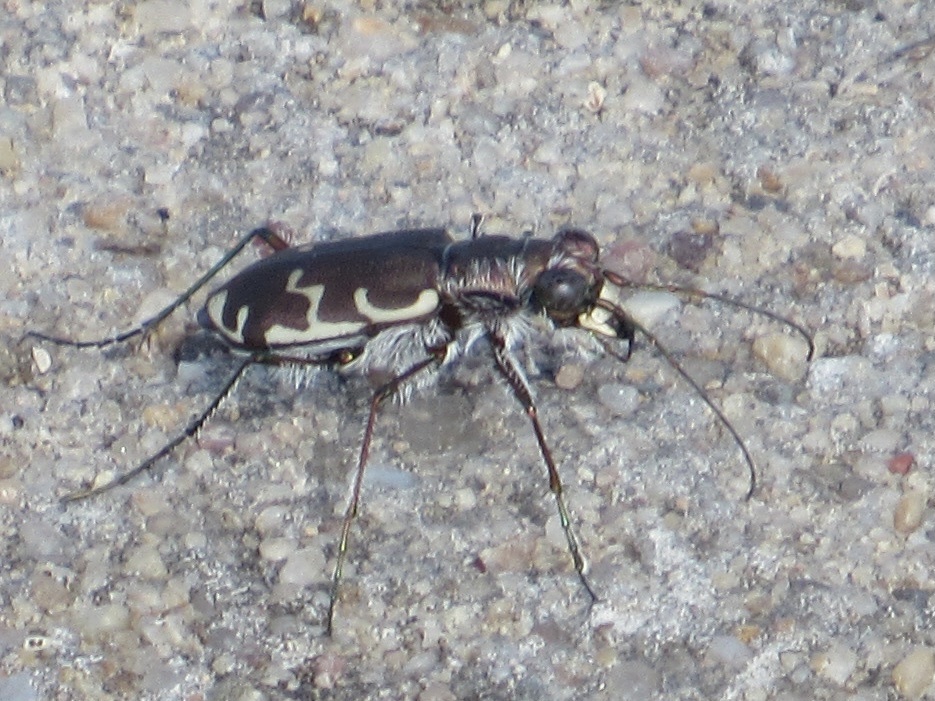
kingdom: Animalia
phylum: Arthropoda
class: Insecta
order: Coleoptera
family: Carabidae
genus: Cicindela
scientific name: Cicindela repanda
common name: Bronzed tiger beetle
